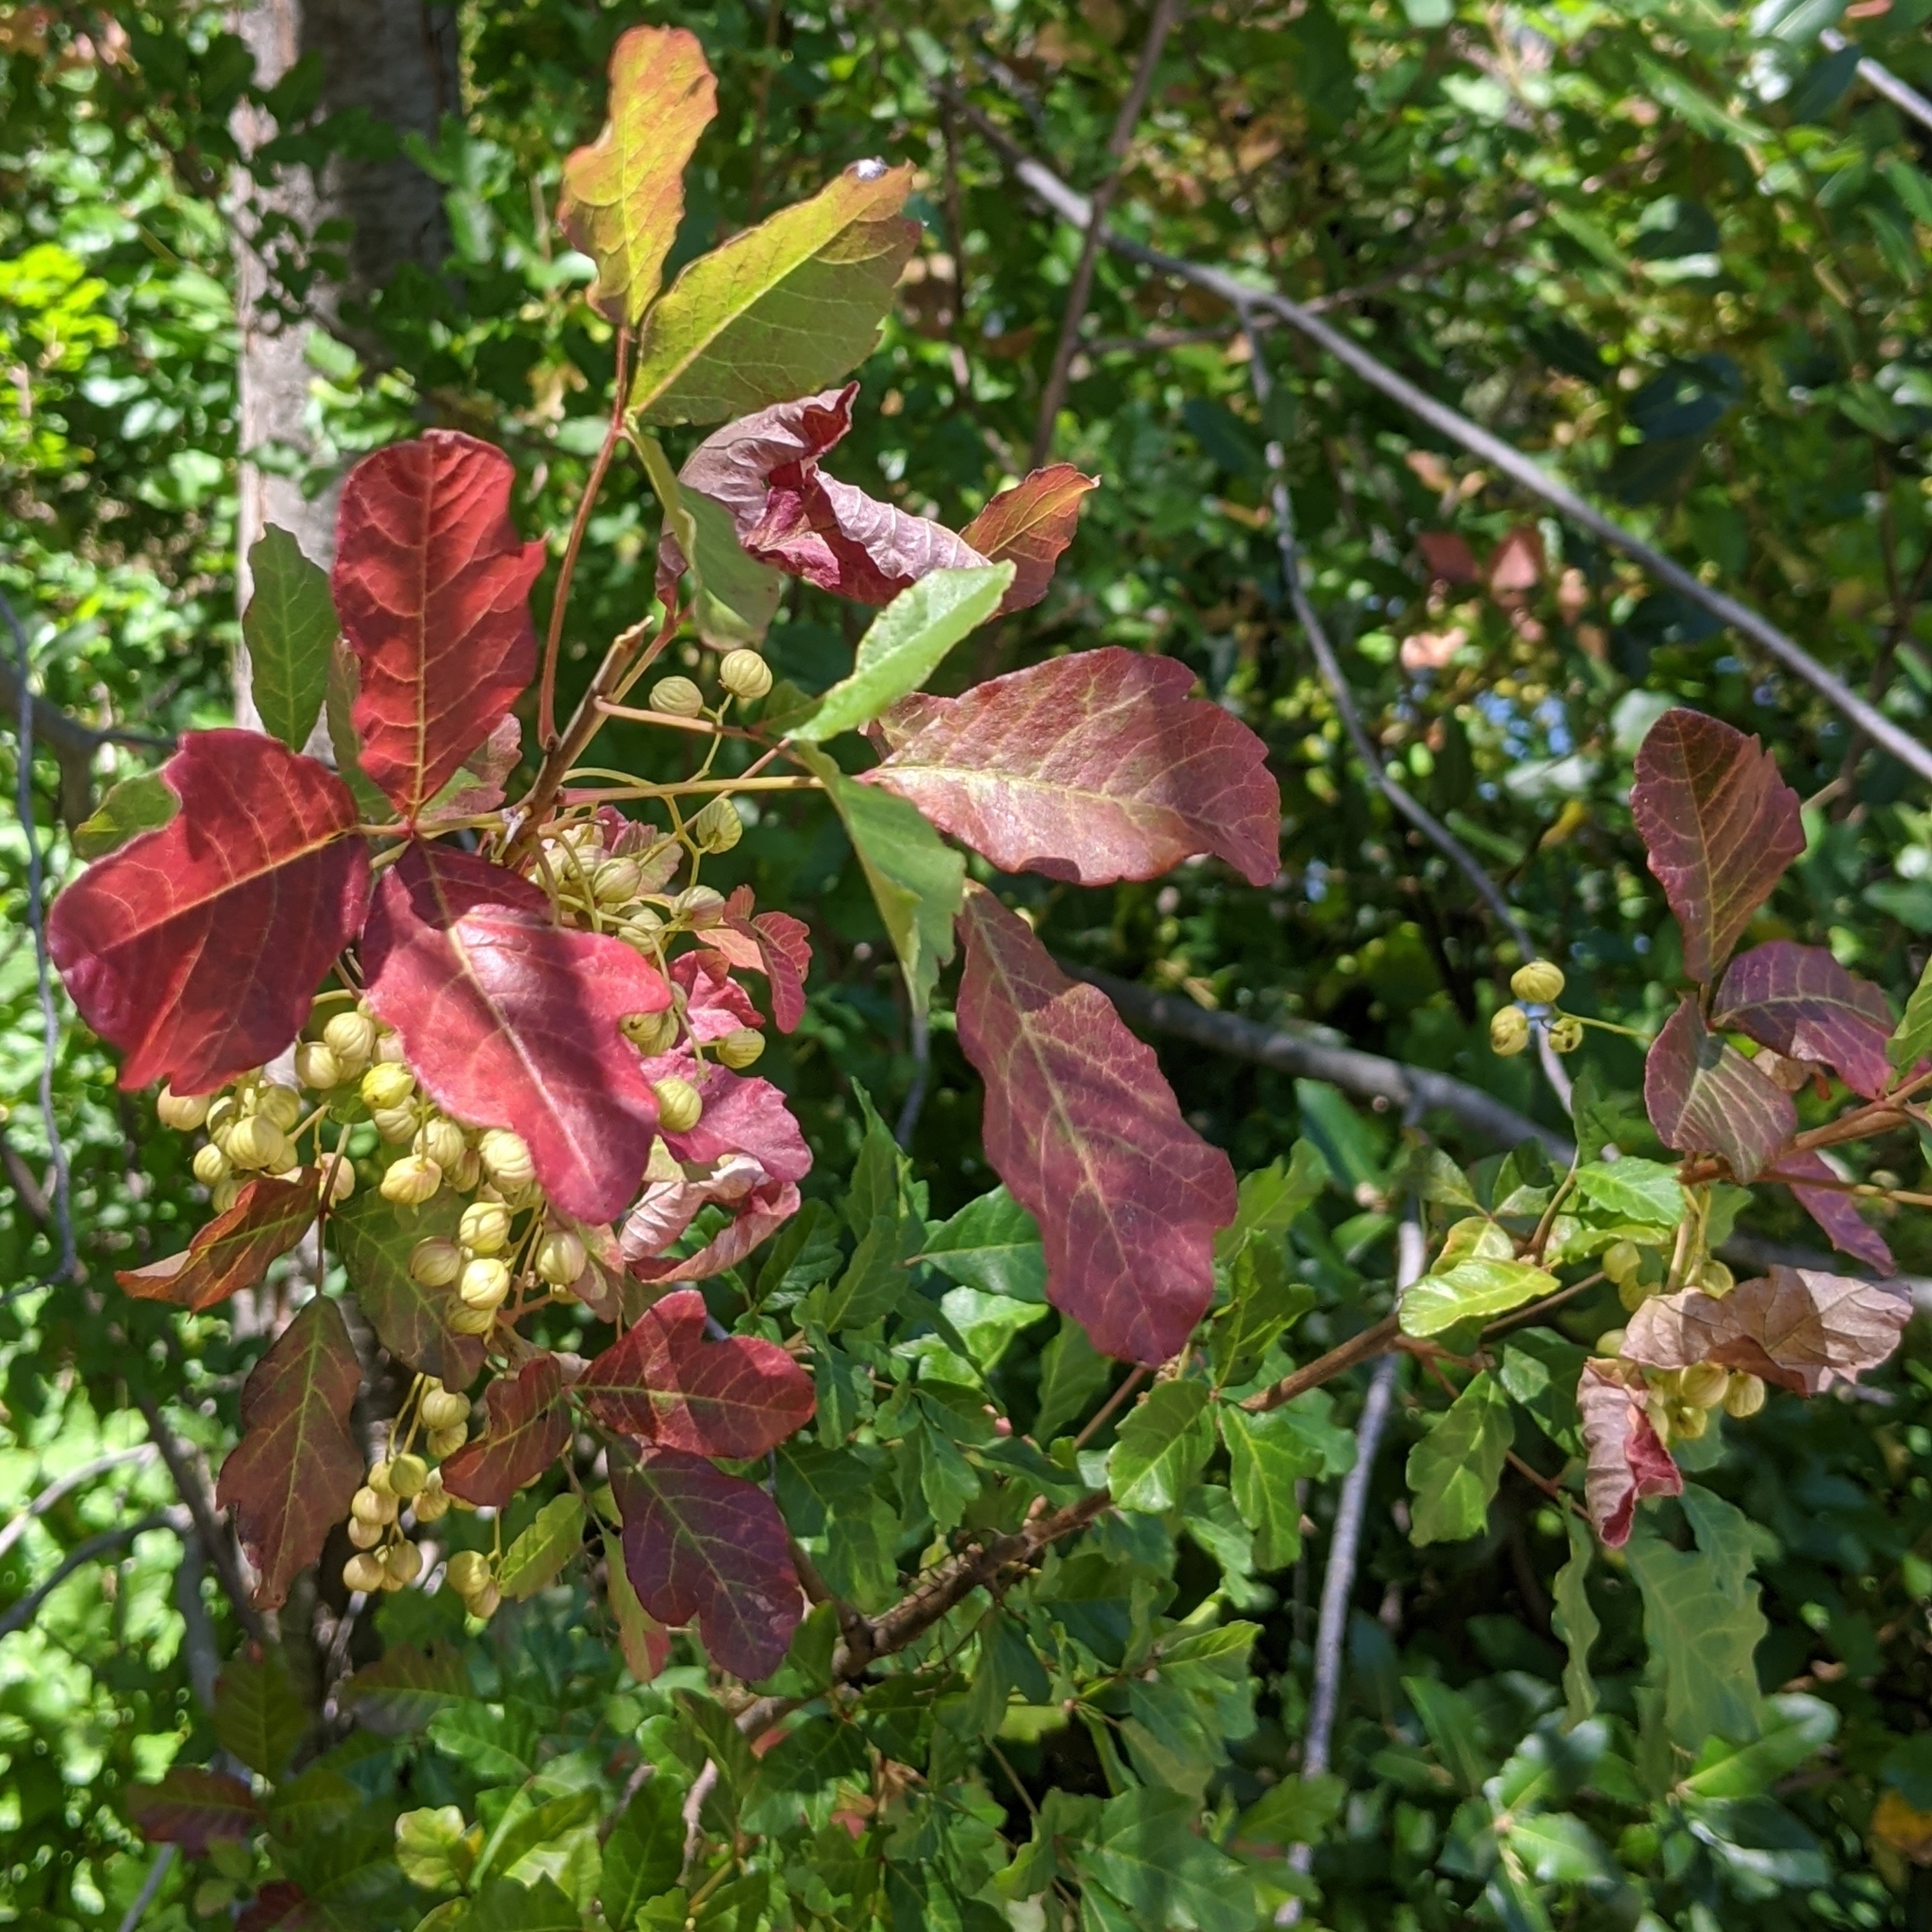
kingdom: Plantae
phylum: Tracheophyta
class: Magnoliopsida
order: Sapindales
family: Anacardiaceae
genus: Toxicodendron
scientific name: Toxicodendron diversilobum
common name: Pacific poison-oak
